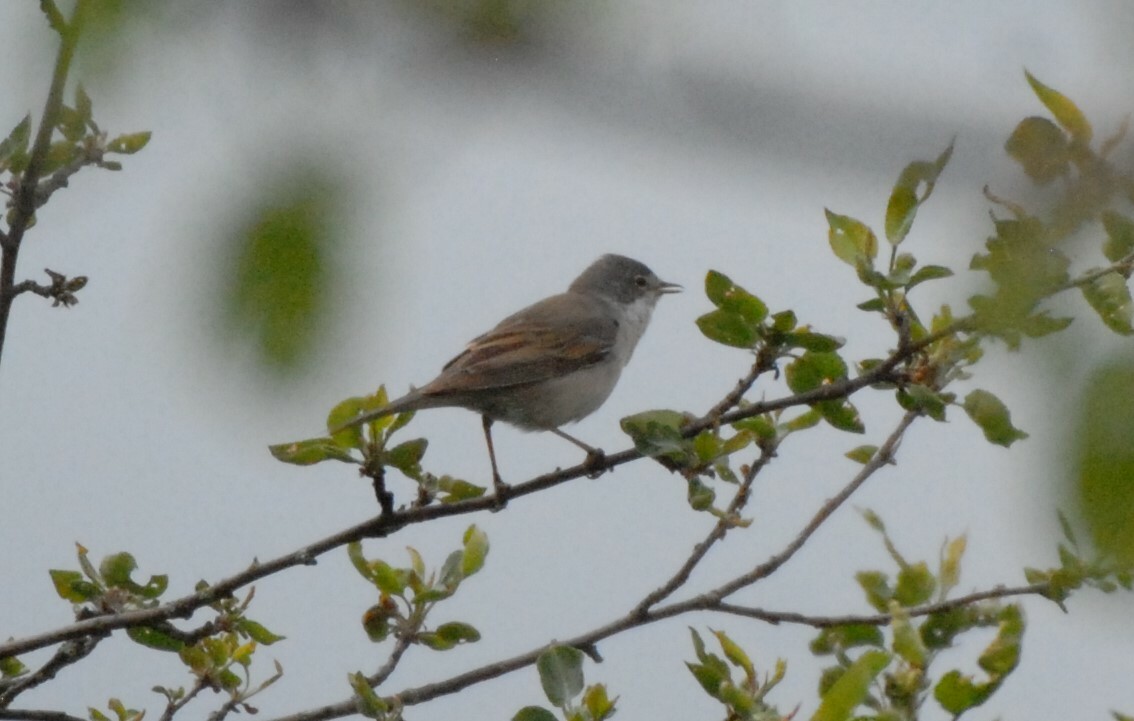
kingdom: Animalia
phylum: Chordata
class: Aves
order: Passeriformes
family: Sylviidae
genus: Sylvia
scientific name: Sylvia communis
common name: Common whitethroat
